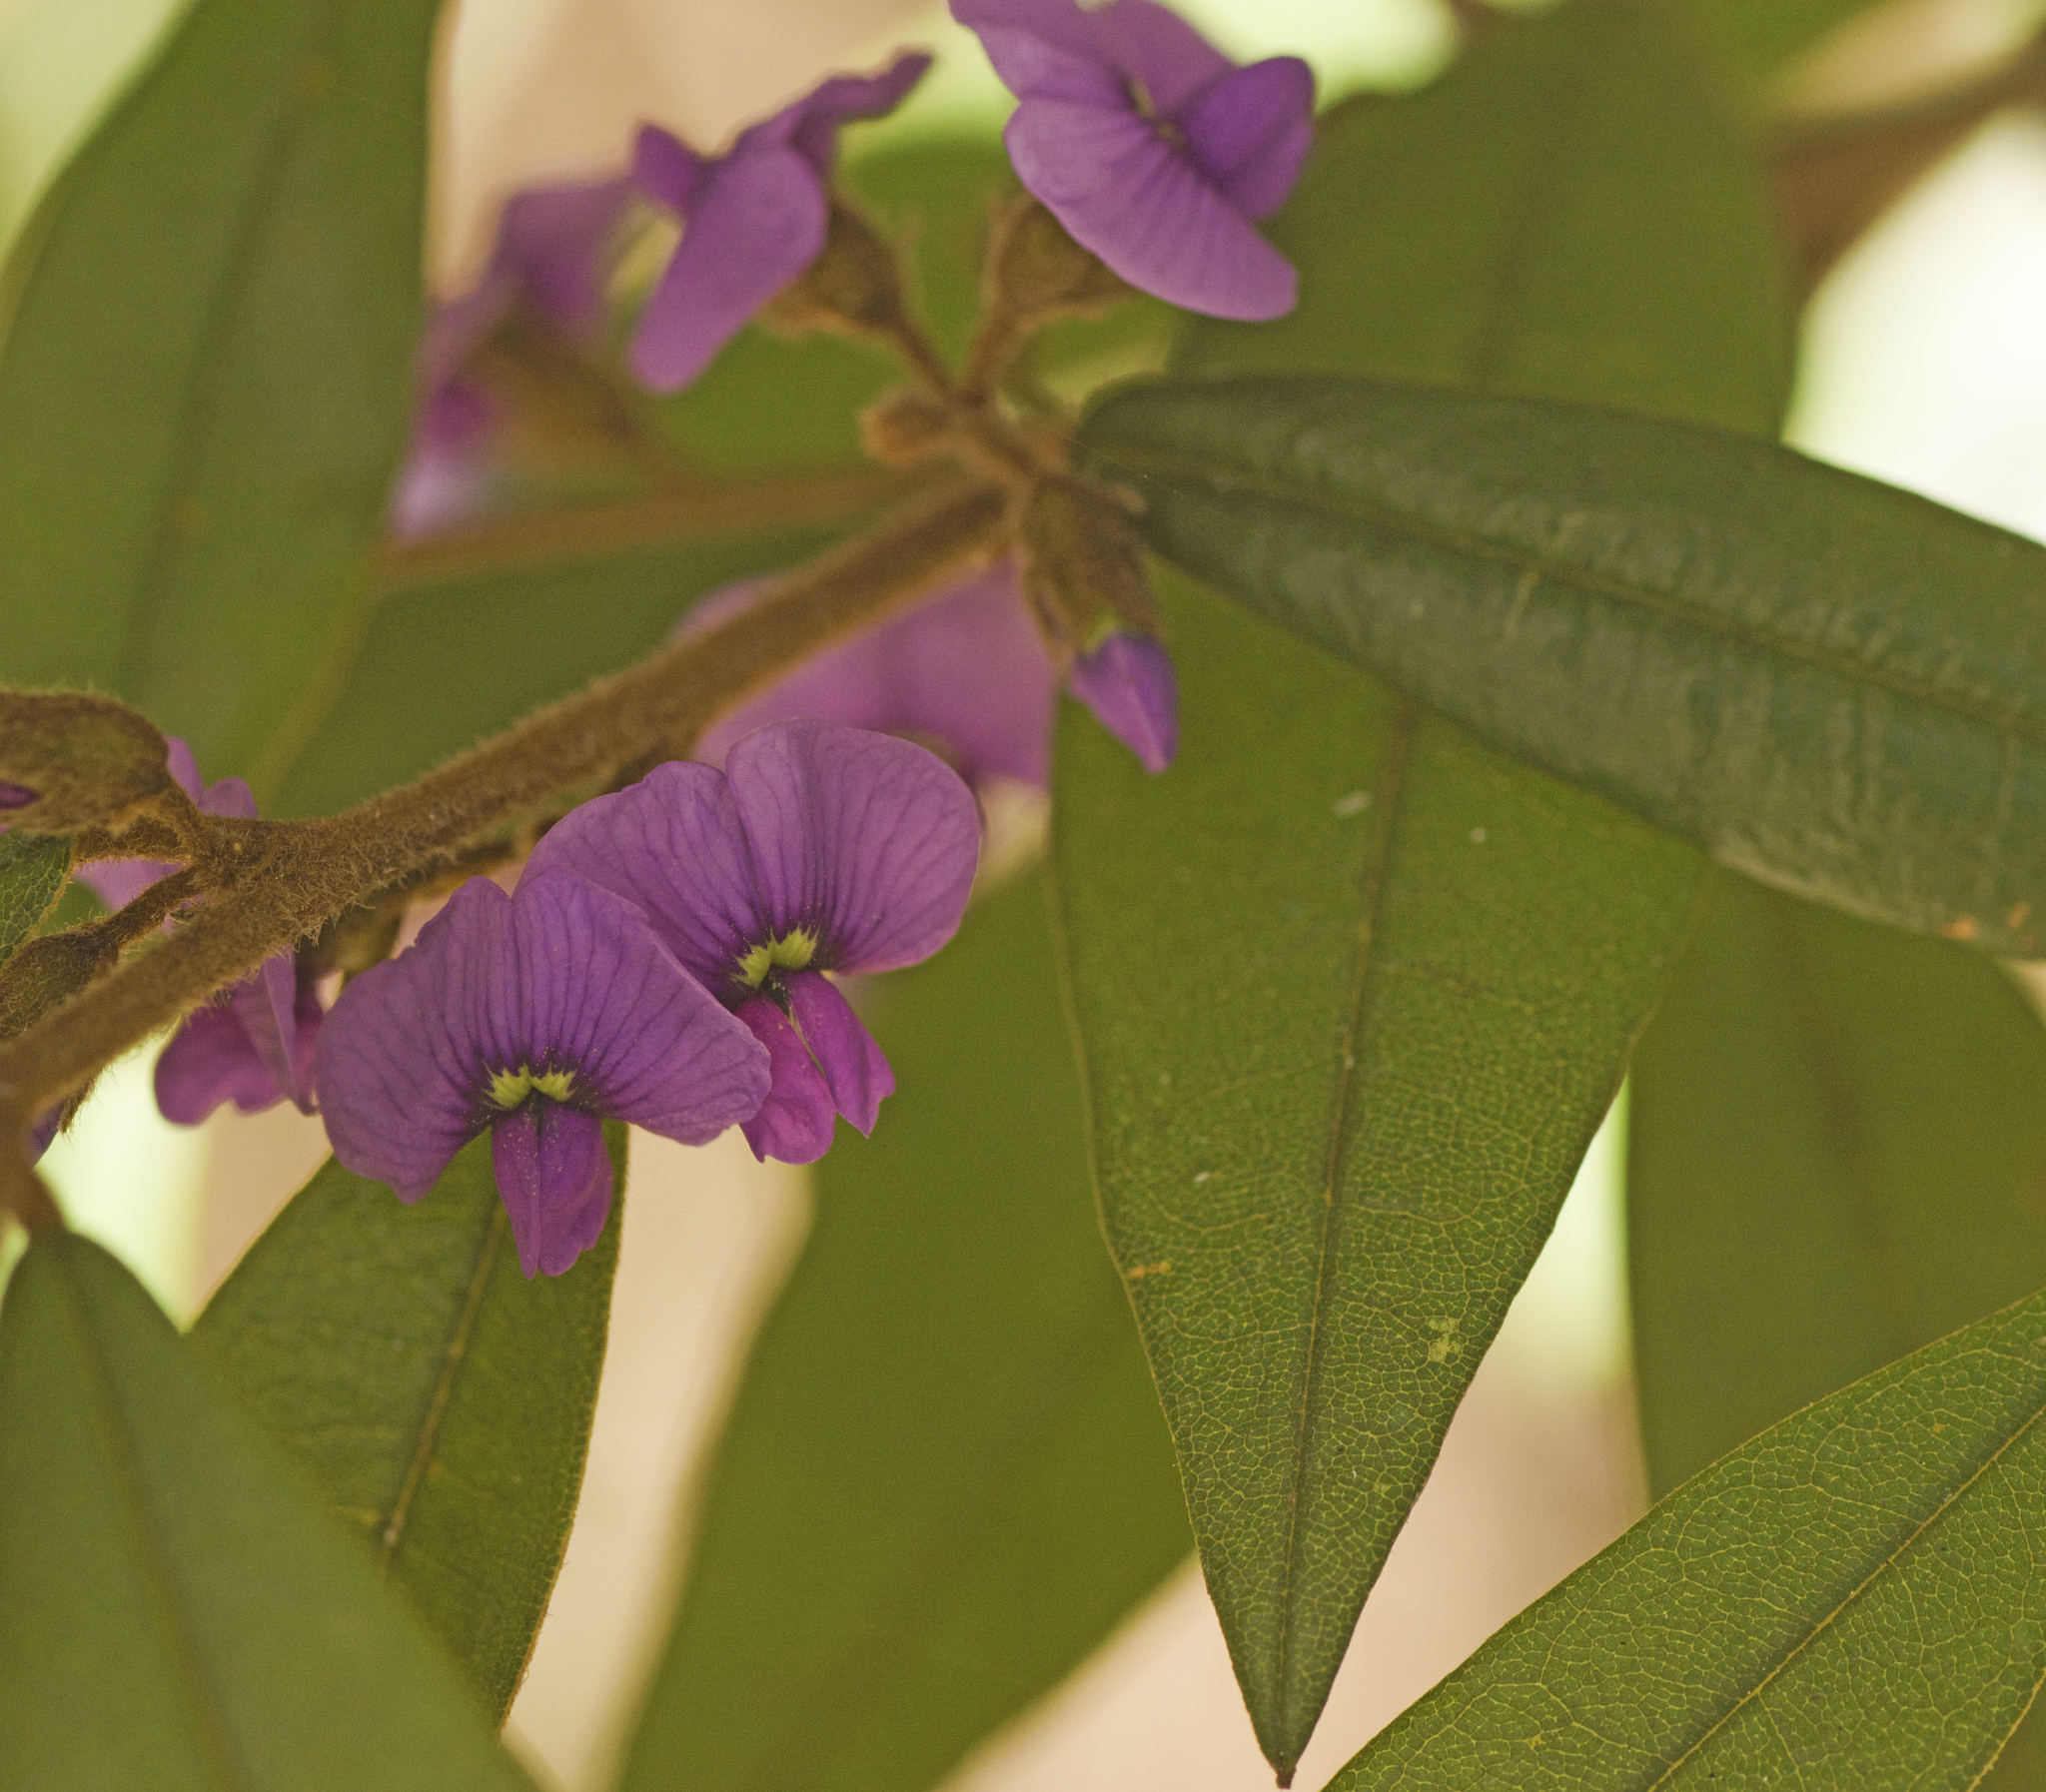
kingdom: Plantae
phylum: Tracheophyta
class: Magnoliopsida
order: Fabales
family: Fabaceae
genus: Hovea
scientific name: Hovea acutifolia
